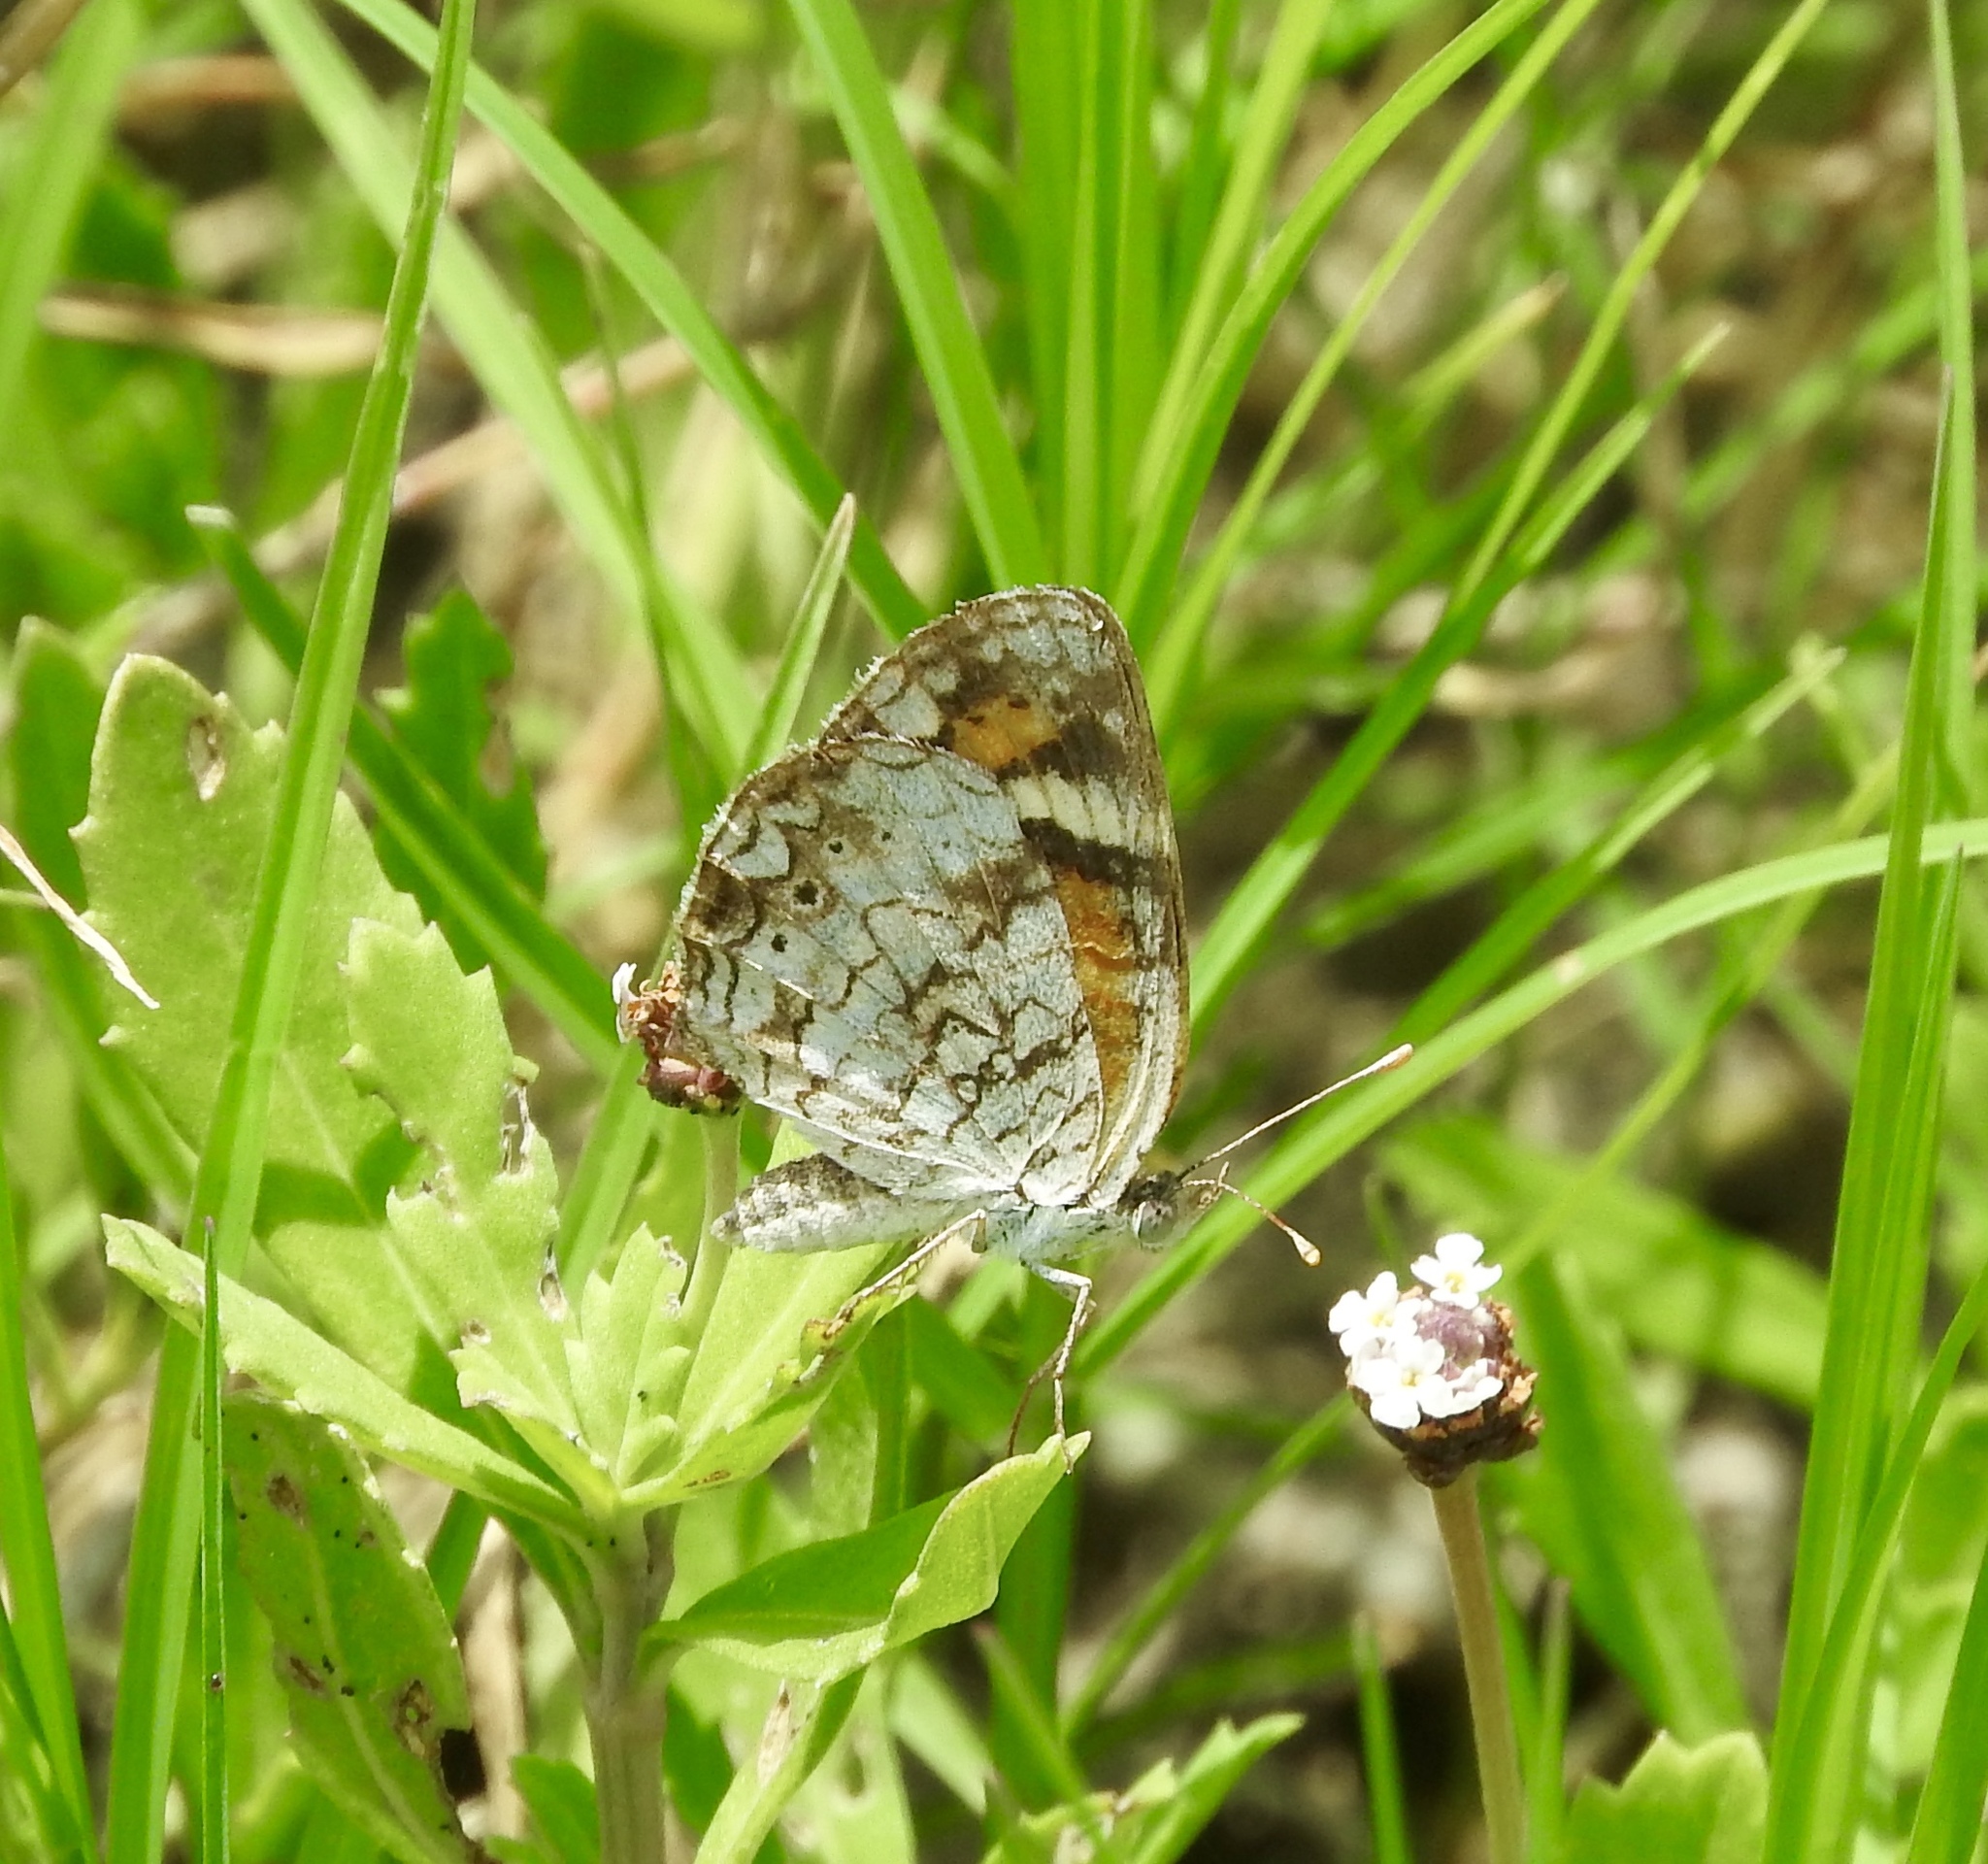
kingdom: Animalia
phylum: Arthropoda
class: Insecta
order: Lepidoptera
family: Nymphalidae
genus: Phyciodes
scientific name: Phyciodes phaon
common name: Phaon crescent
